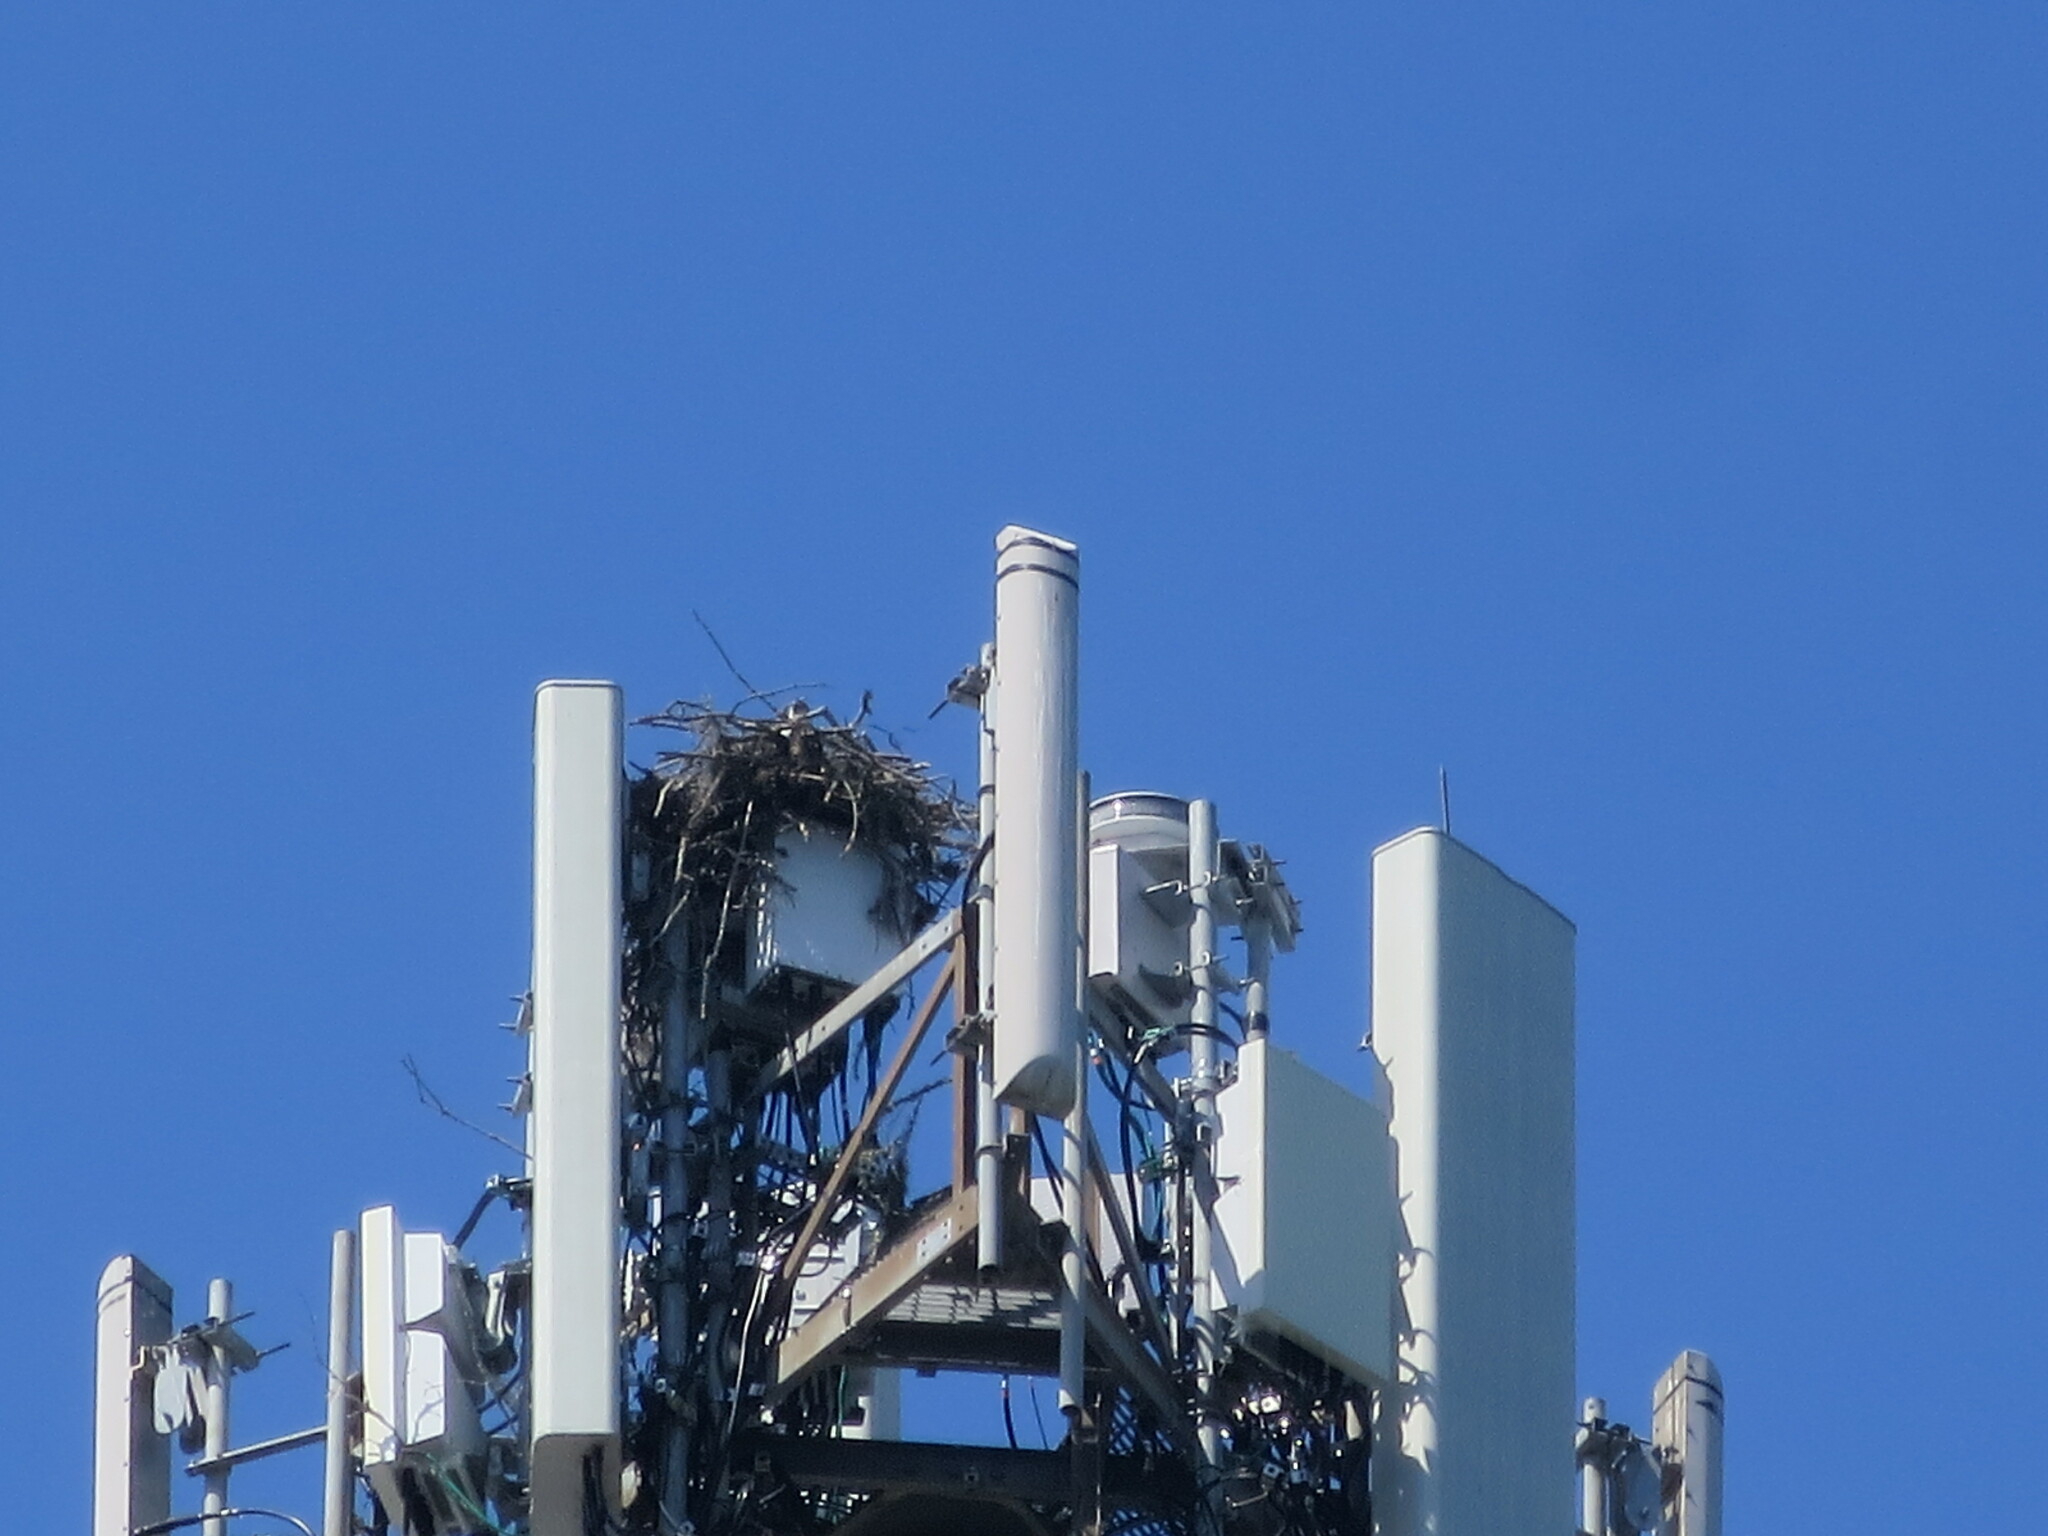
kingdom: Animalia
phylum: Chordata
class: Aves
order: Accipitriformes
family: Pandionidae
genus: Pandion
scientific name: Pandion haliaetus
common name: Osprey
